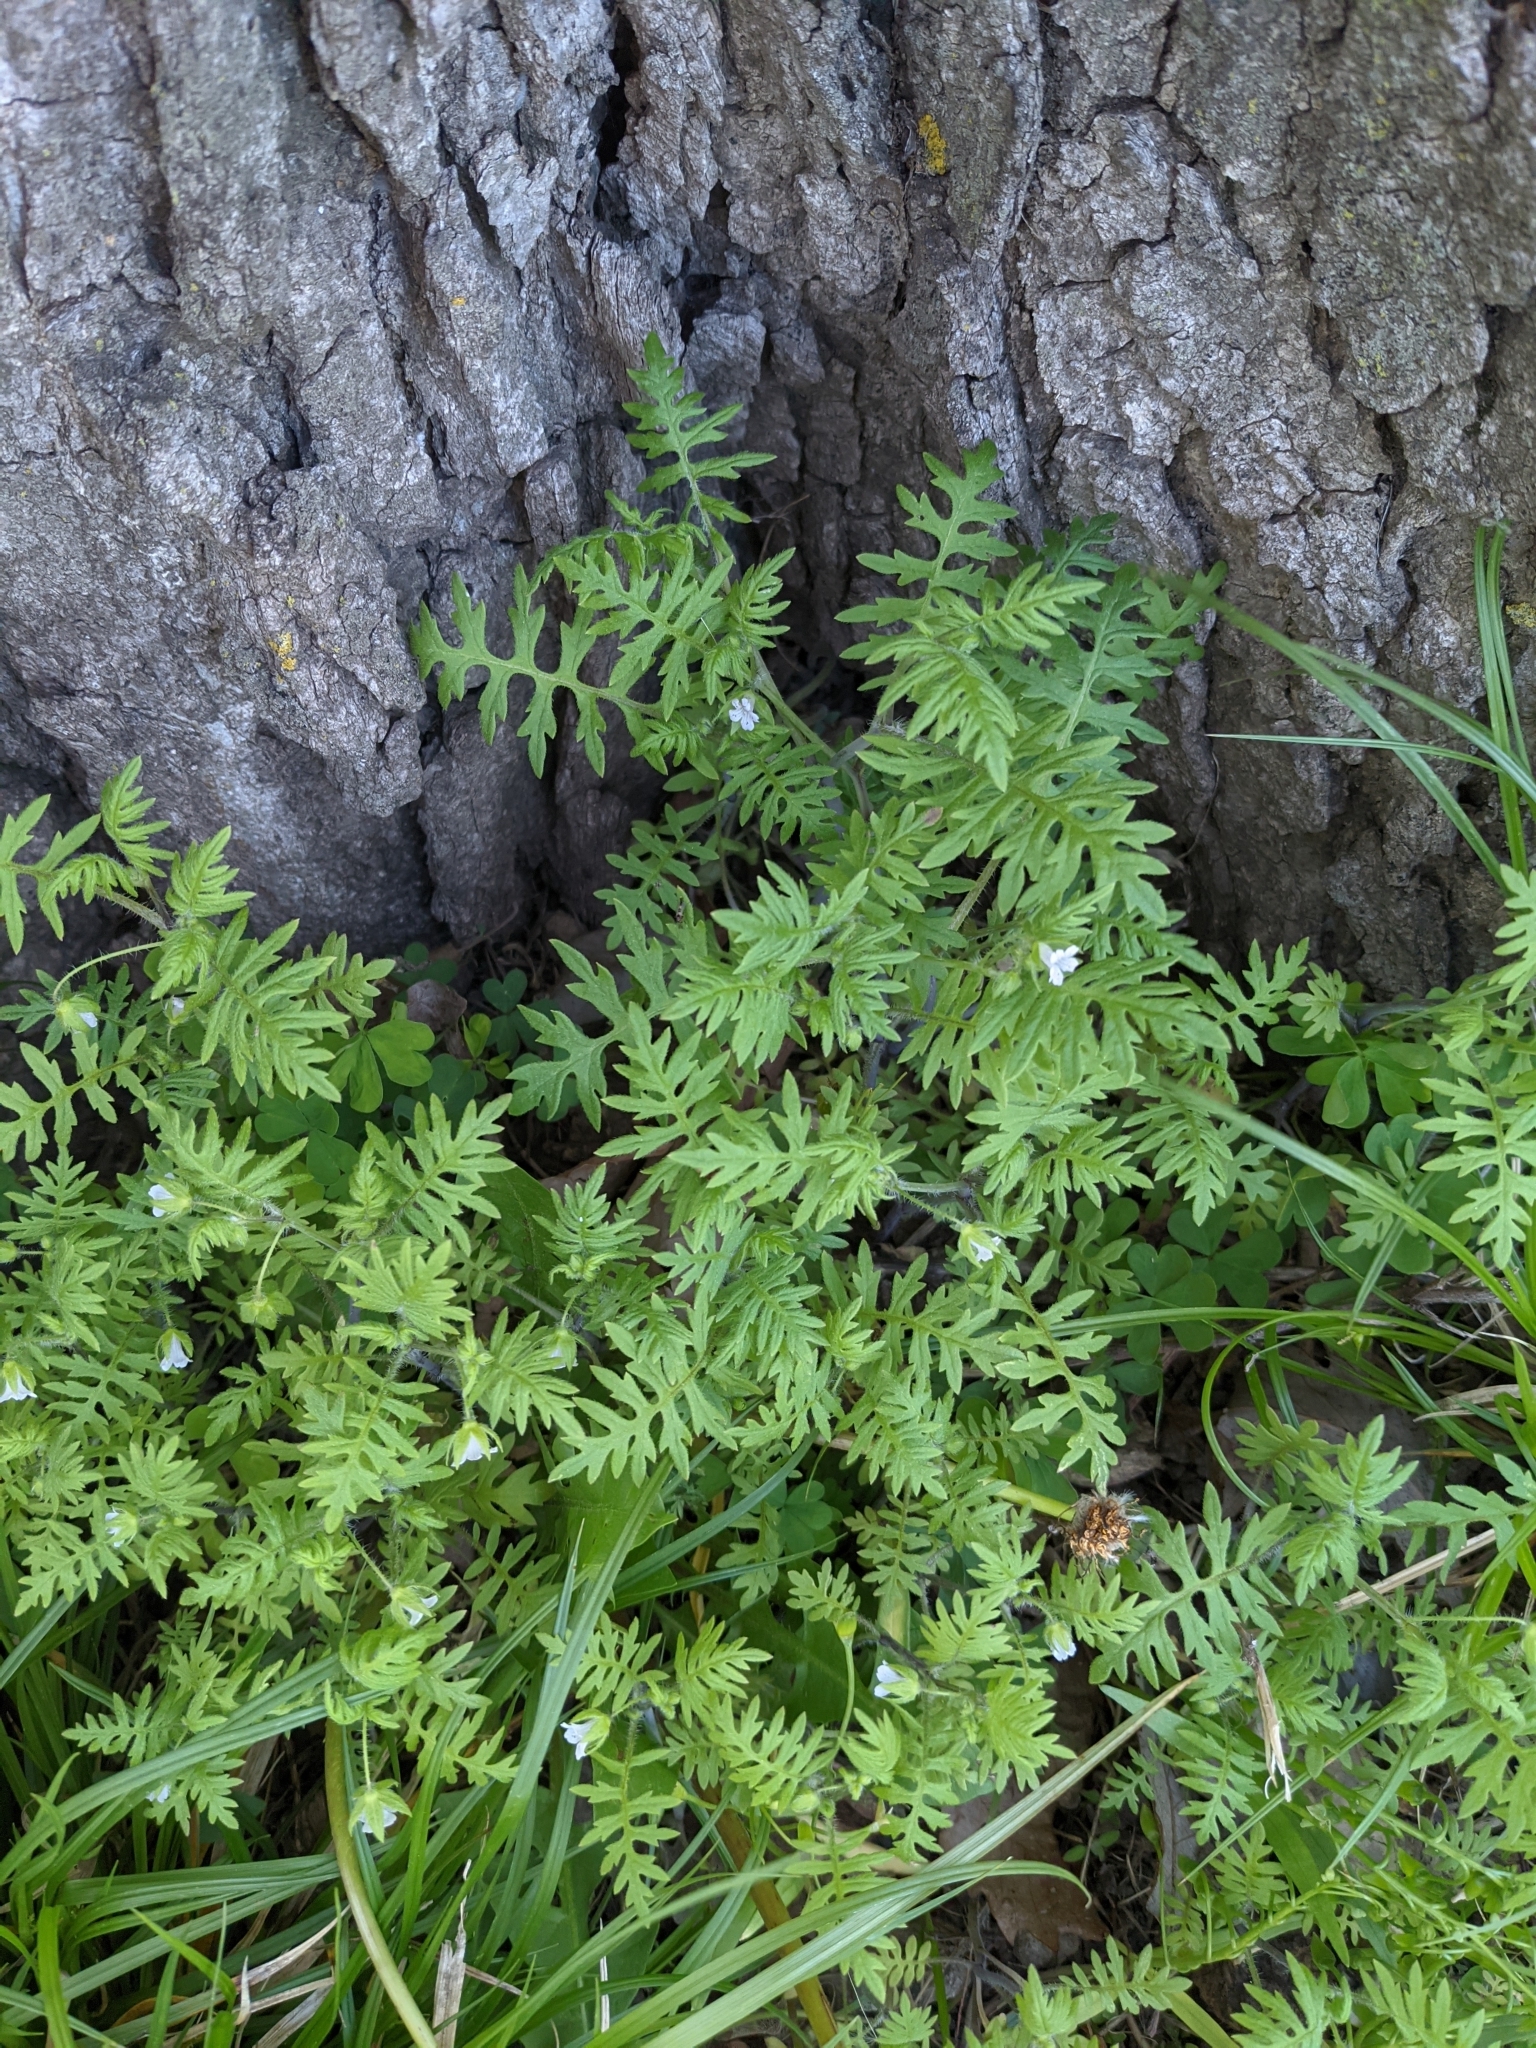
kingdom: Plantae
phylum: Tracheophyta
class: Magnoliopsida
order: Boraginales
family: Hydrophyllaceae
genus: Ellisia
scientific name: Ellisia nyctelea
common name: Aunt lucy
